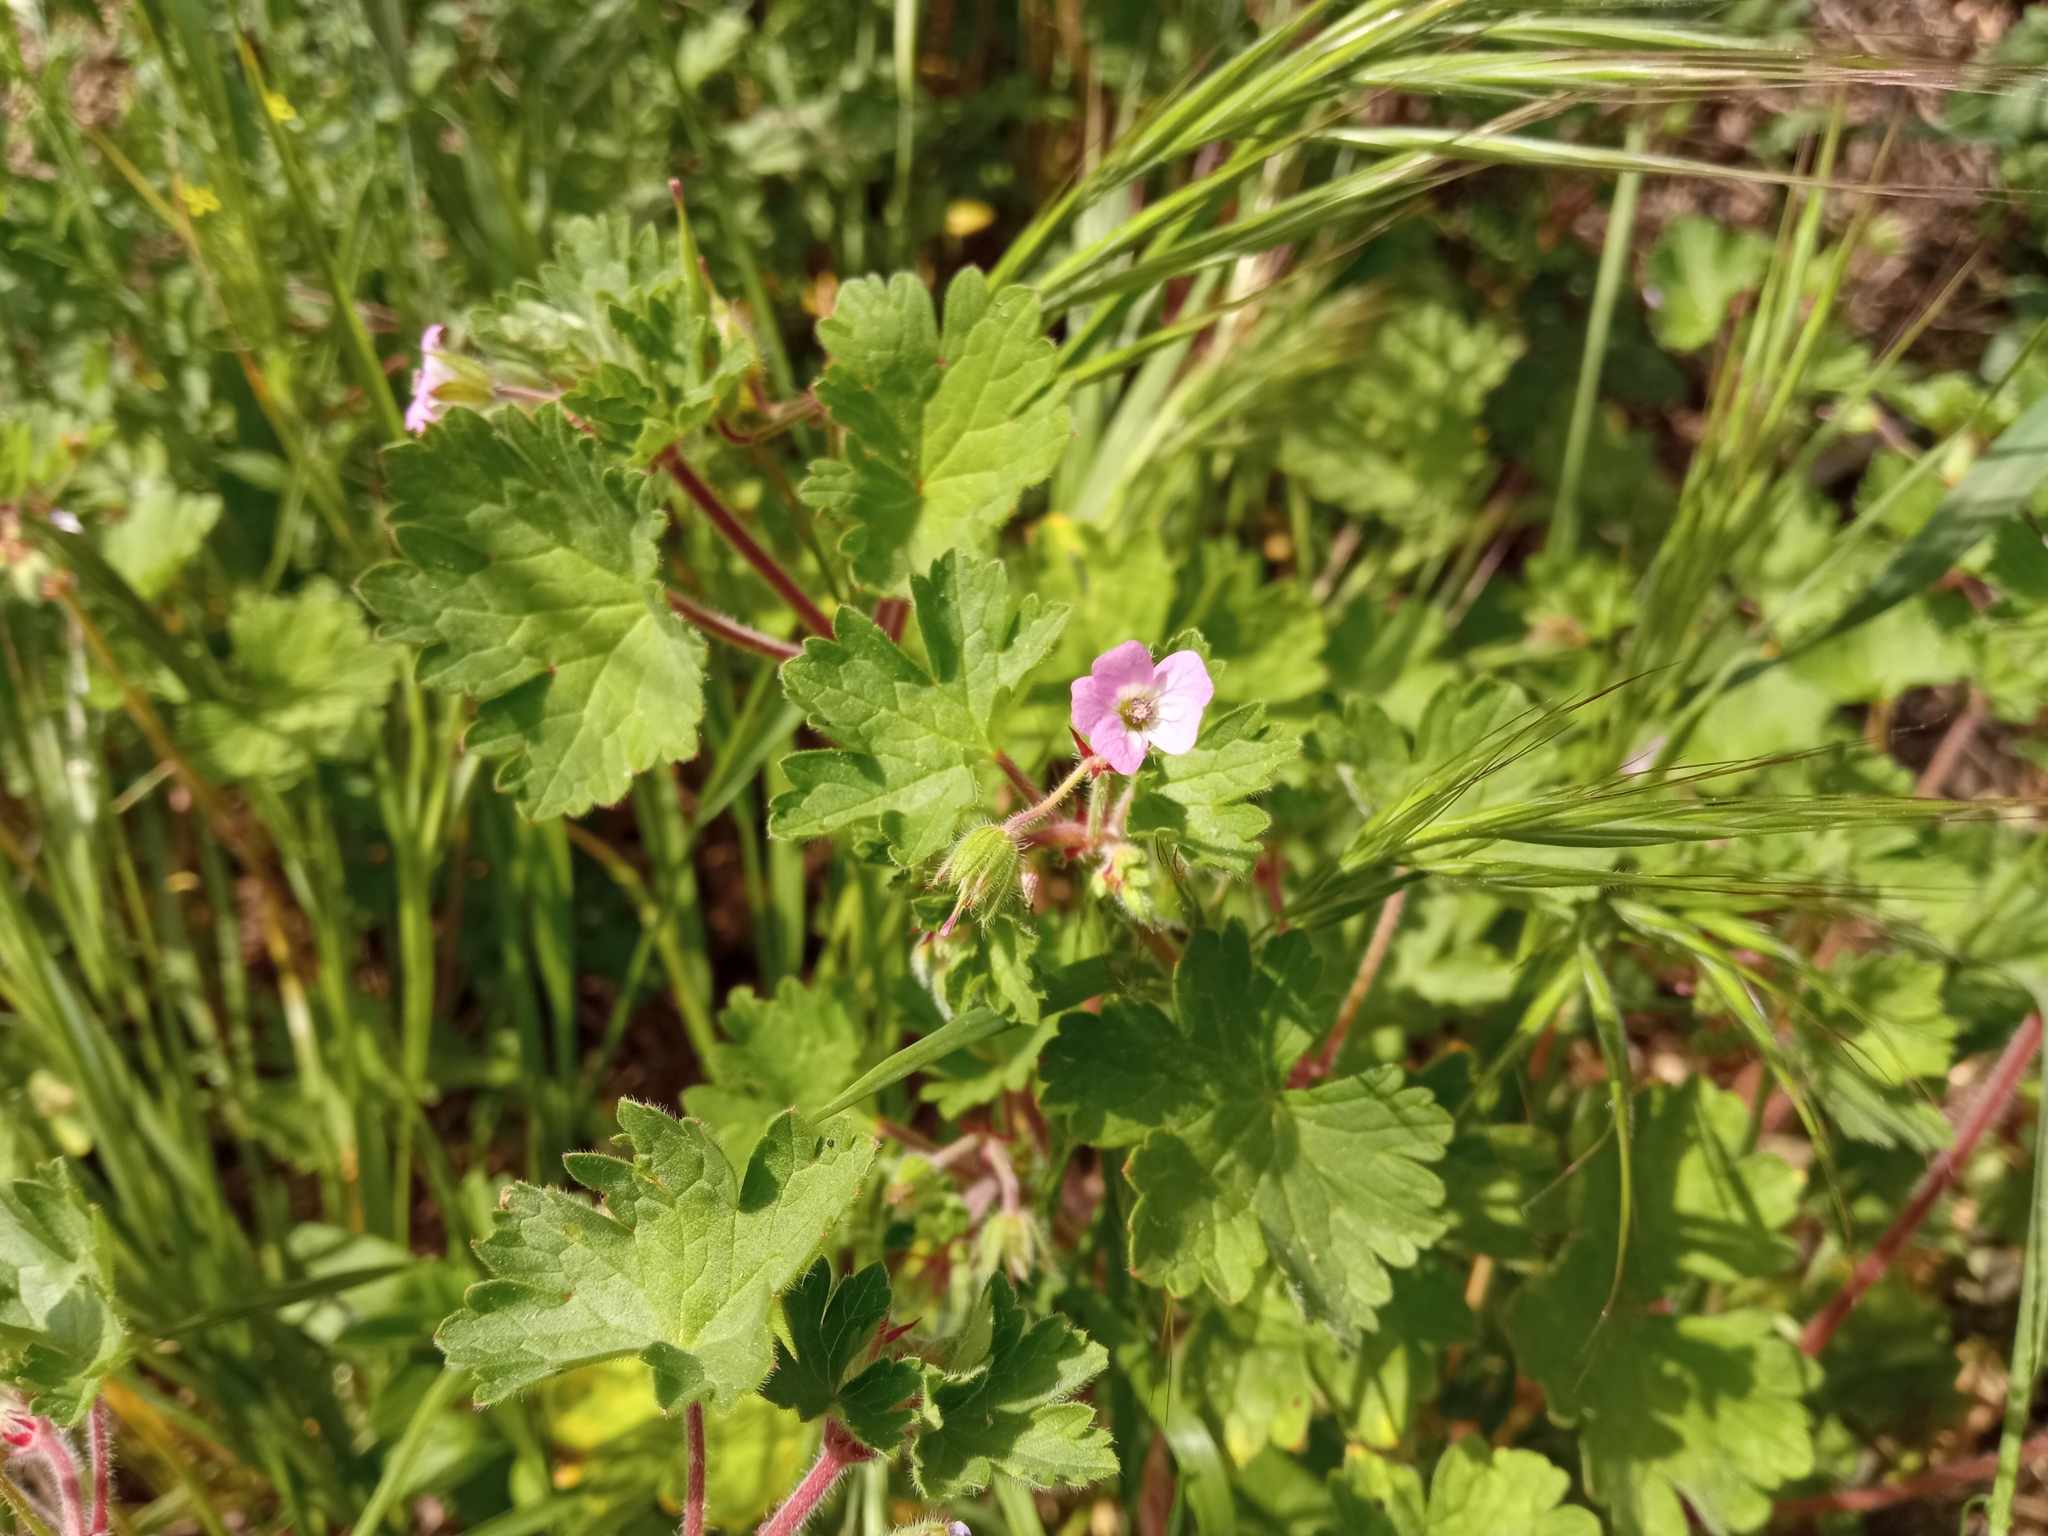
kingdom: Plantae
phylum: Tracheophyta
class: Magnoliopsida
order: Geraniales
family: Geraniaceae
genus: Geranium
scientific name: Geranium rotundifolium
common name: Round-leaved crane's-bill
